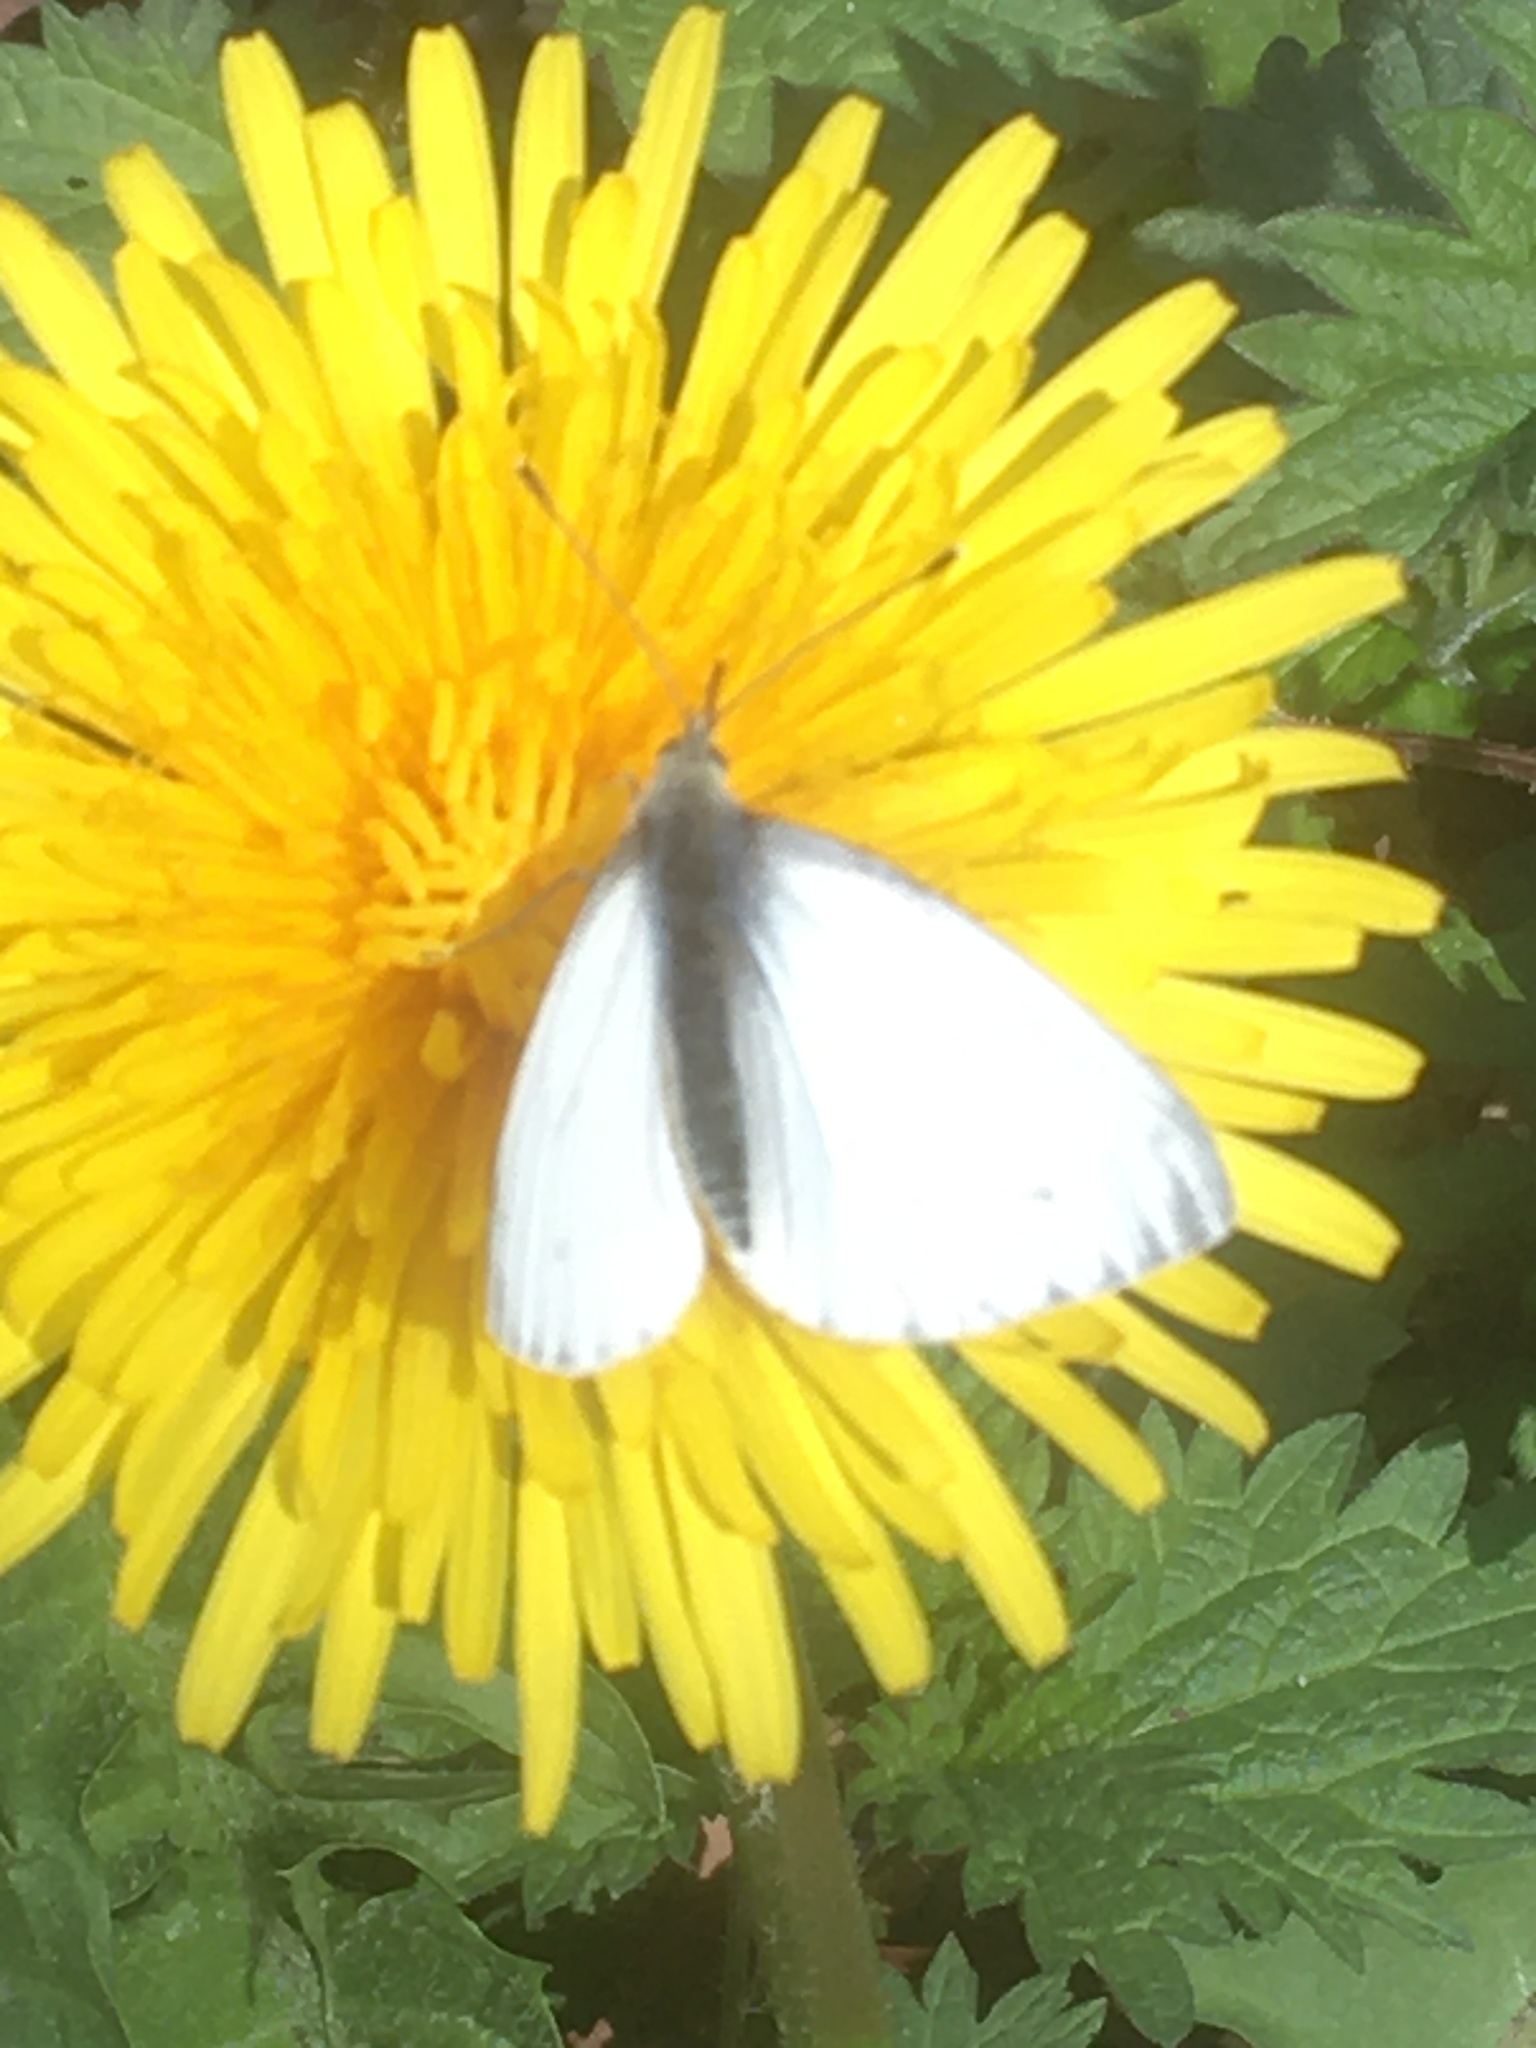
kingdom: Animalia
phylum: Arthropoda
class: Insecta
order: Lepidoptera
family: Pieridae
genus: Pieris
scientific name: Pieris napi
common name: Green-veined white
